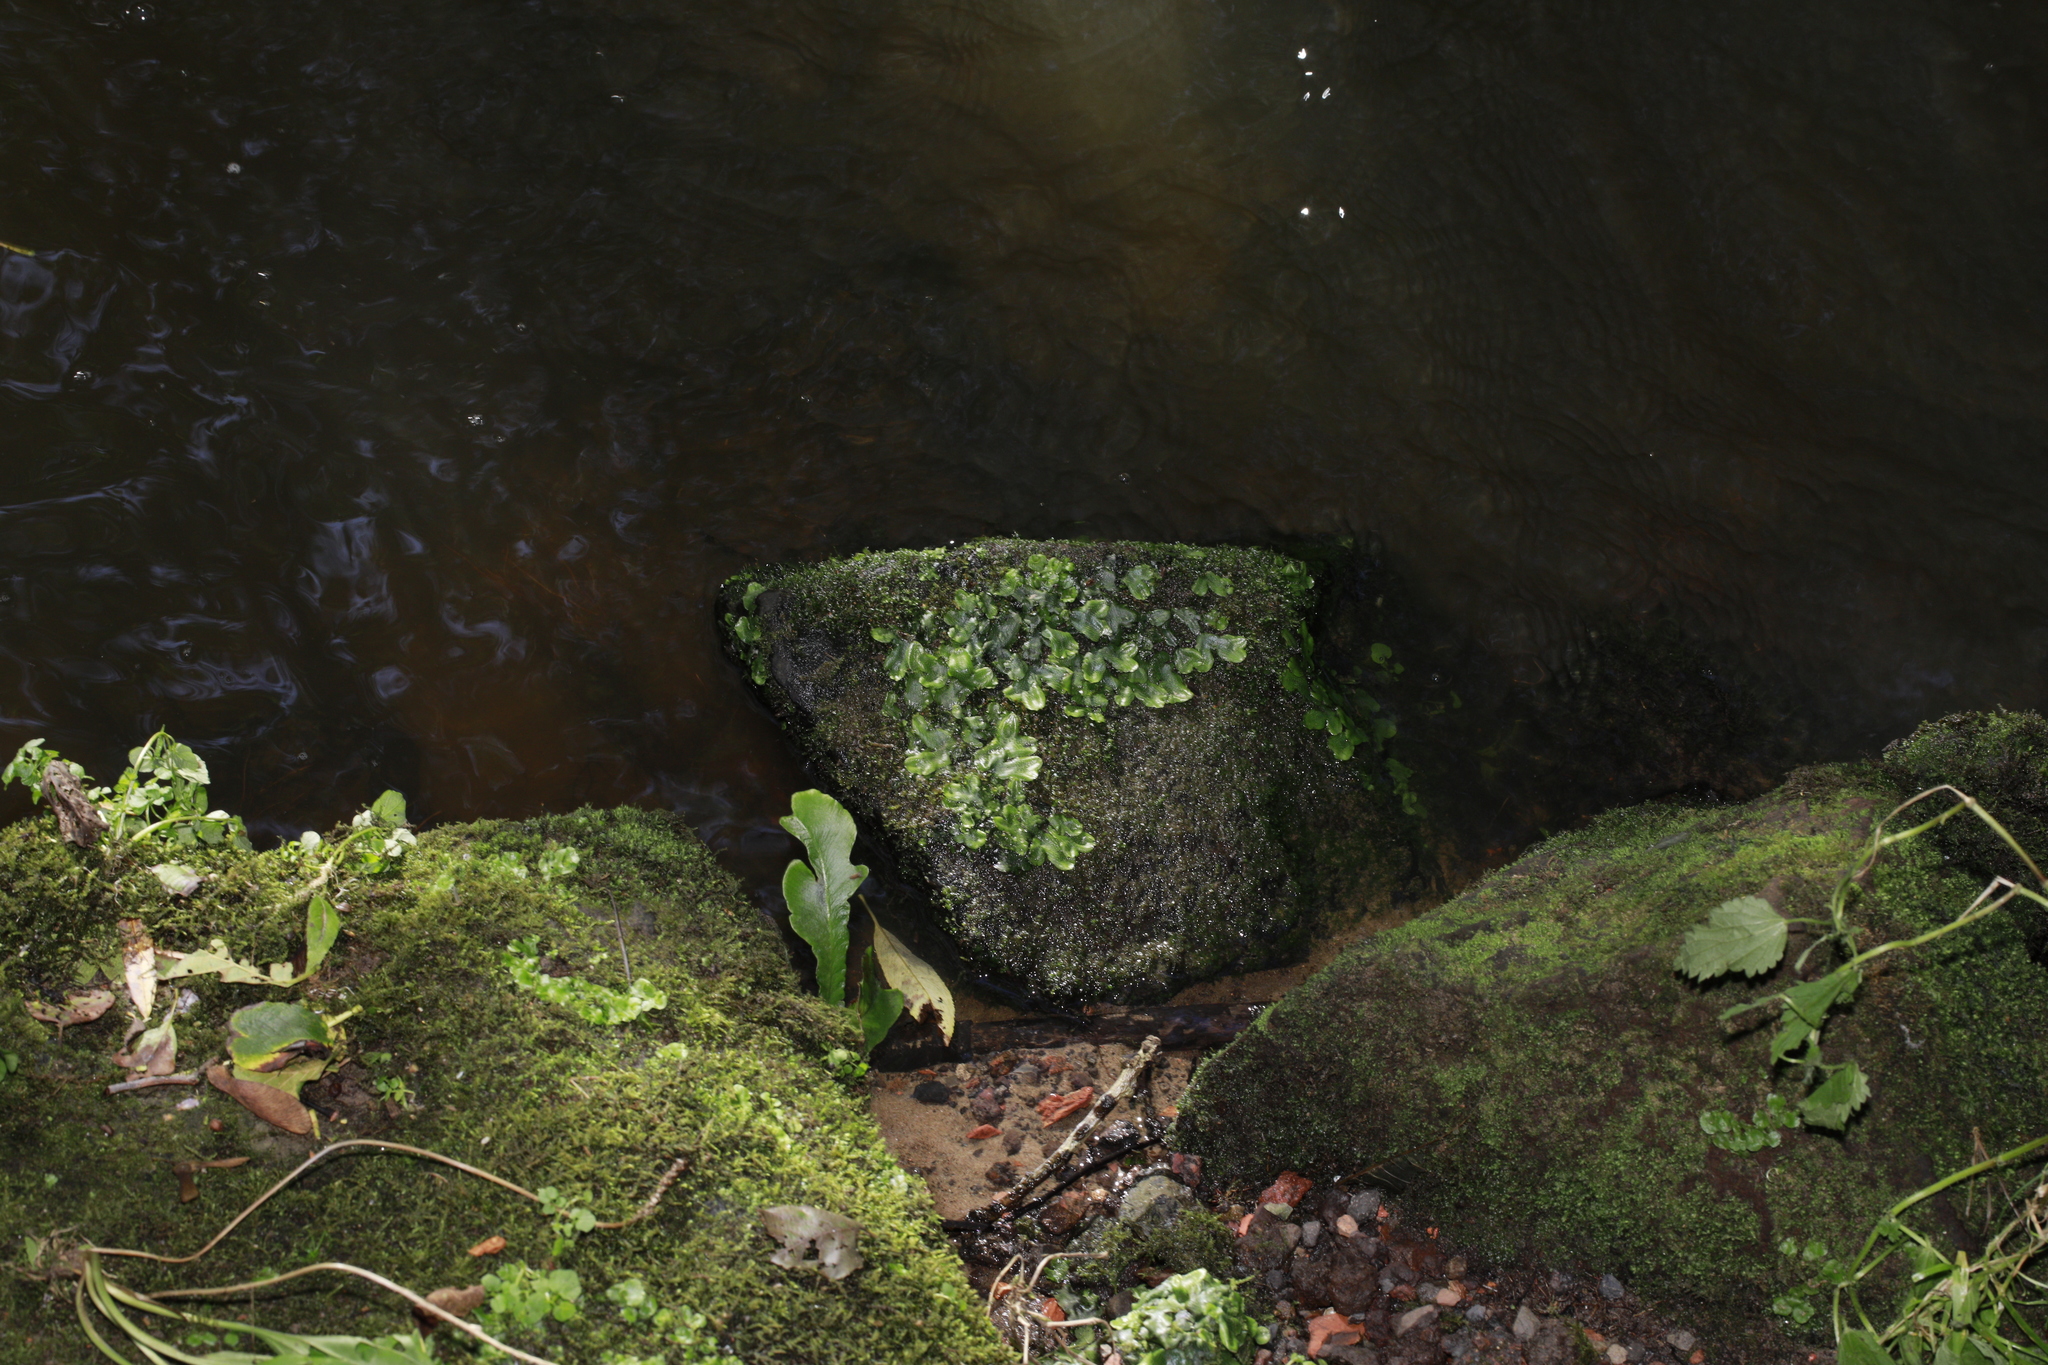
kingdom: Plantae
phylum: Marchantiophyta
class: Marchantiopsida
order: Marchantiales
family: Conocephalaceae
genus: Conocephalum
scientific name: Conocephalum conicum
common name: Great scented liverwort
